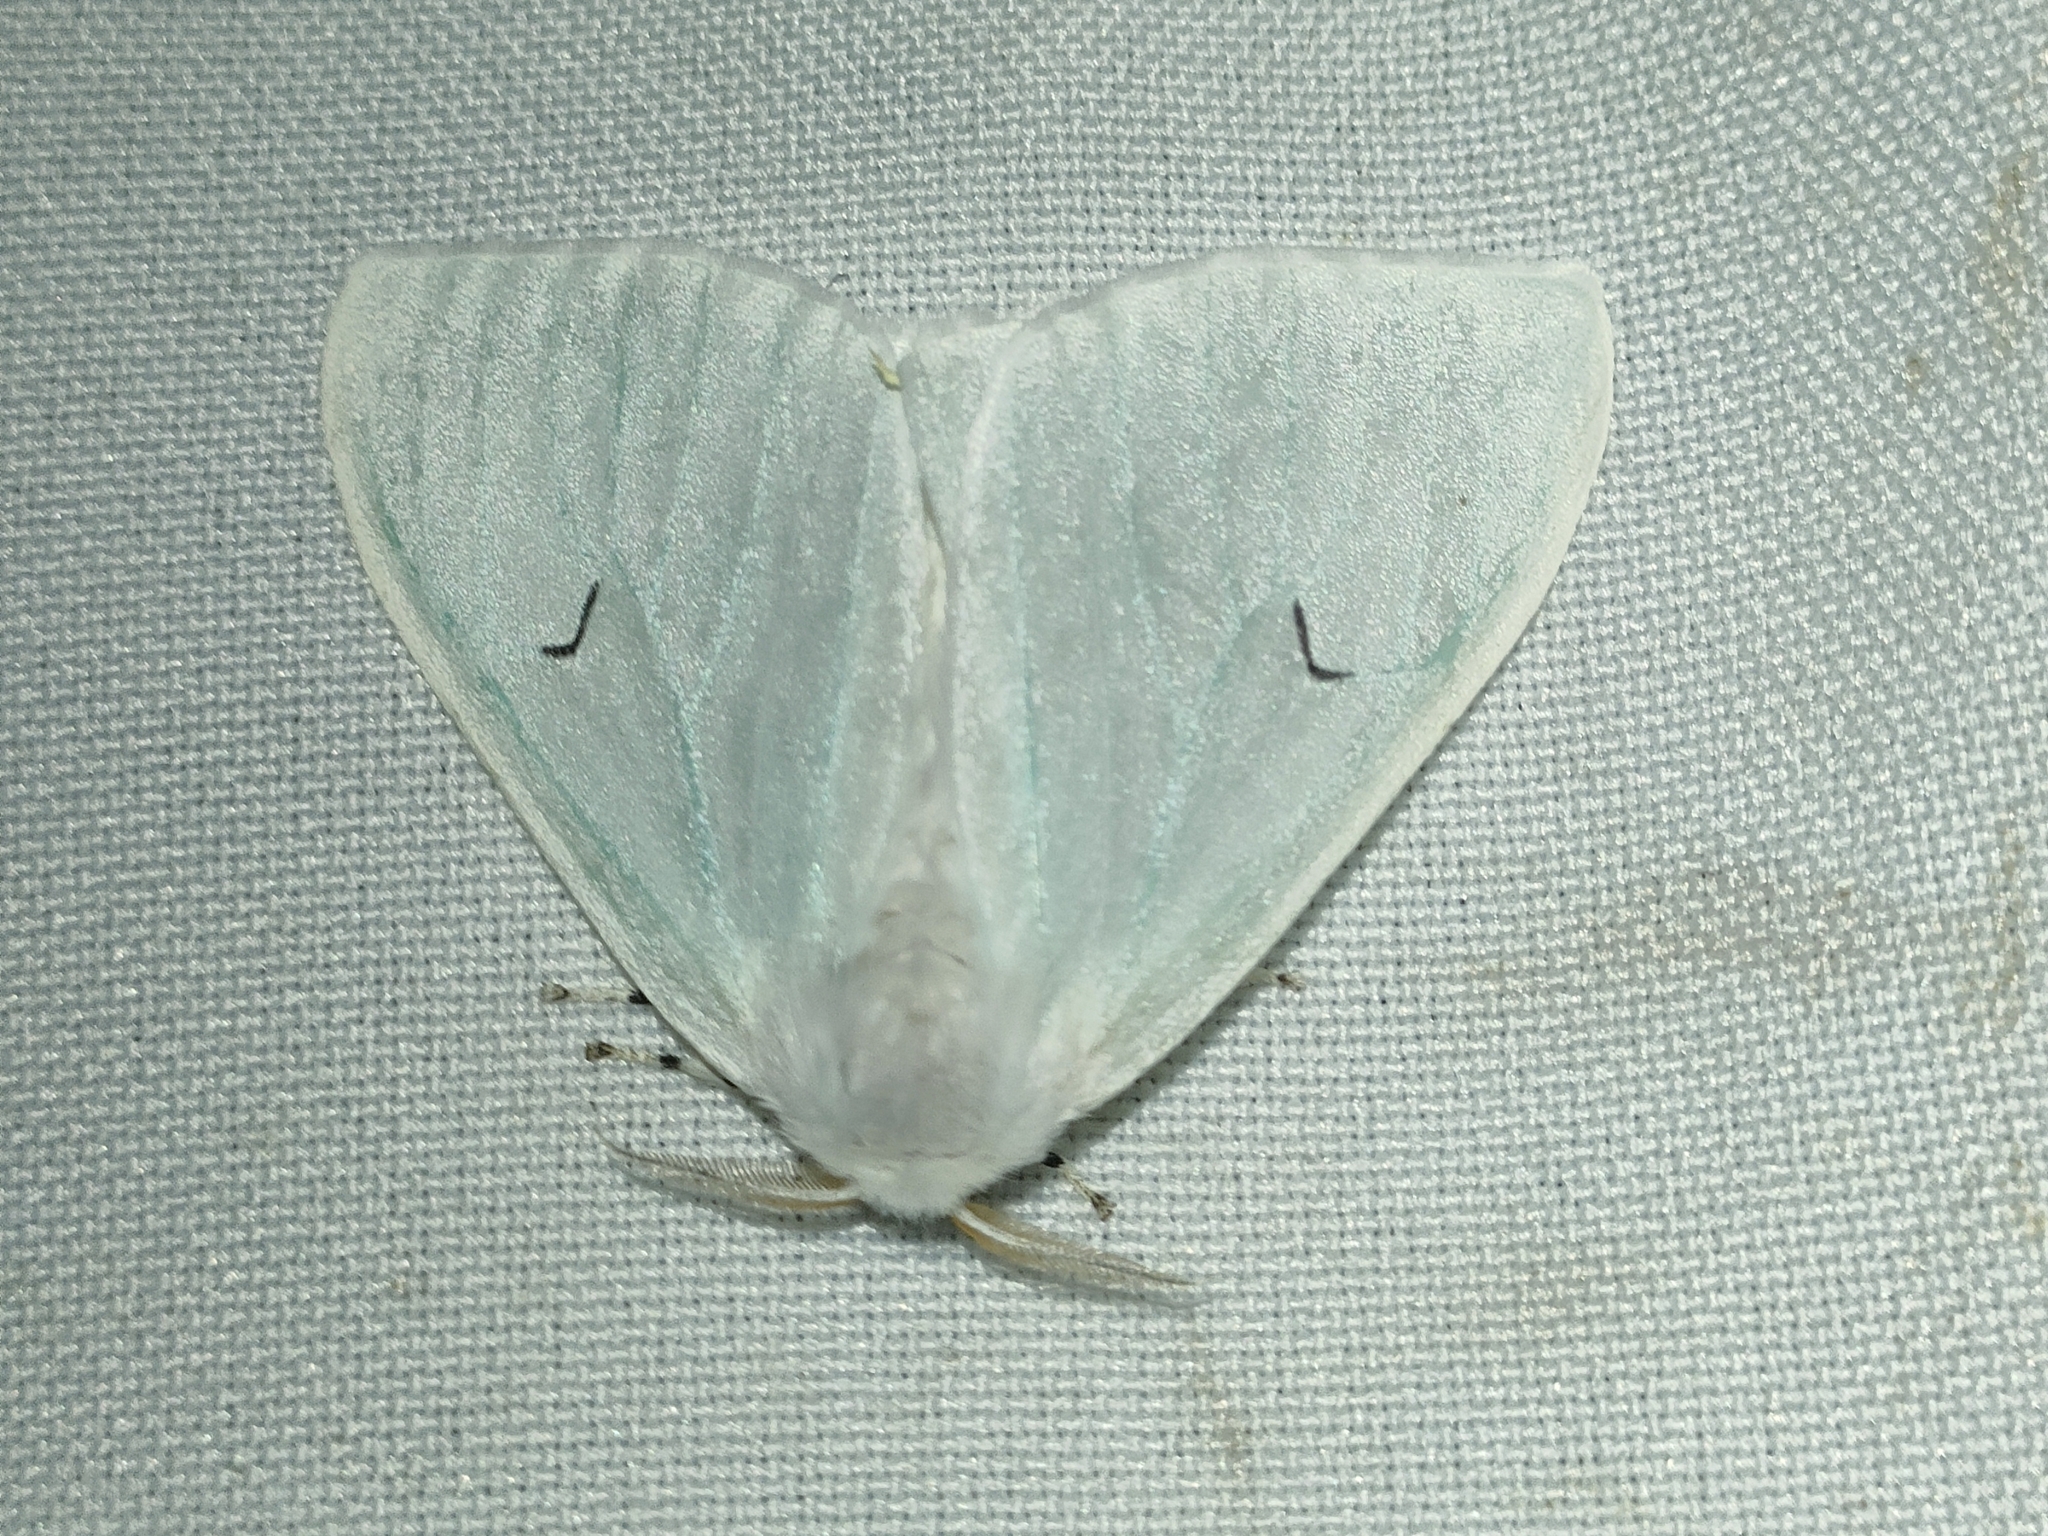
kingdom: Animalia
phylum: Arthropoda
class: Insecta
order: Lepidoptera
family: Erebidae
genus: Arctornis
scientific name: Arctornis l-nigrum
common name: Black v moth
